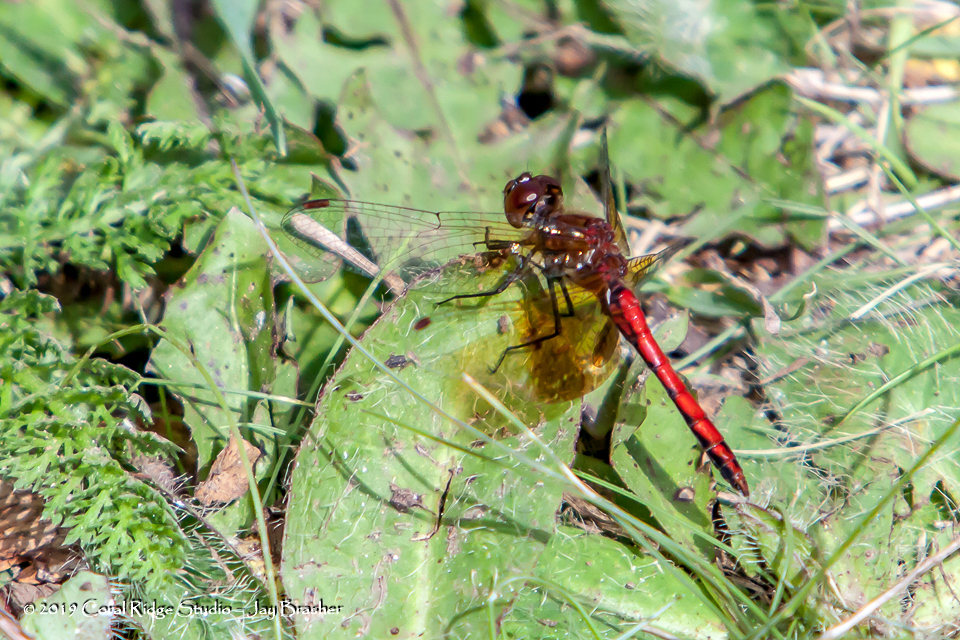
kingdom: Animalia
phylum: Arthropoda
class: Insecta
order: Odonata
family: Libellulidae
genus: Sympetrum
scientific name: Sympetrum semicinctum
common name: Band-winged meadowhawk
